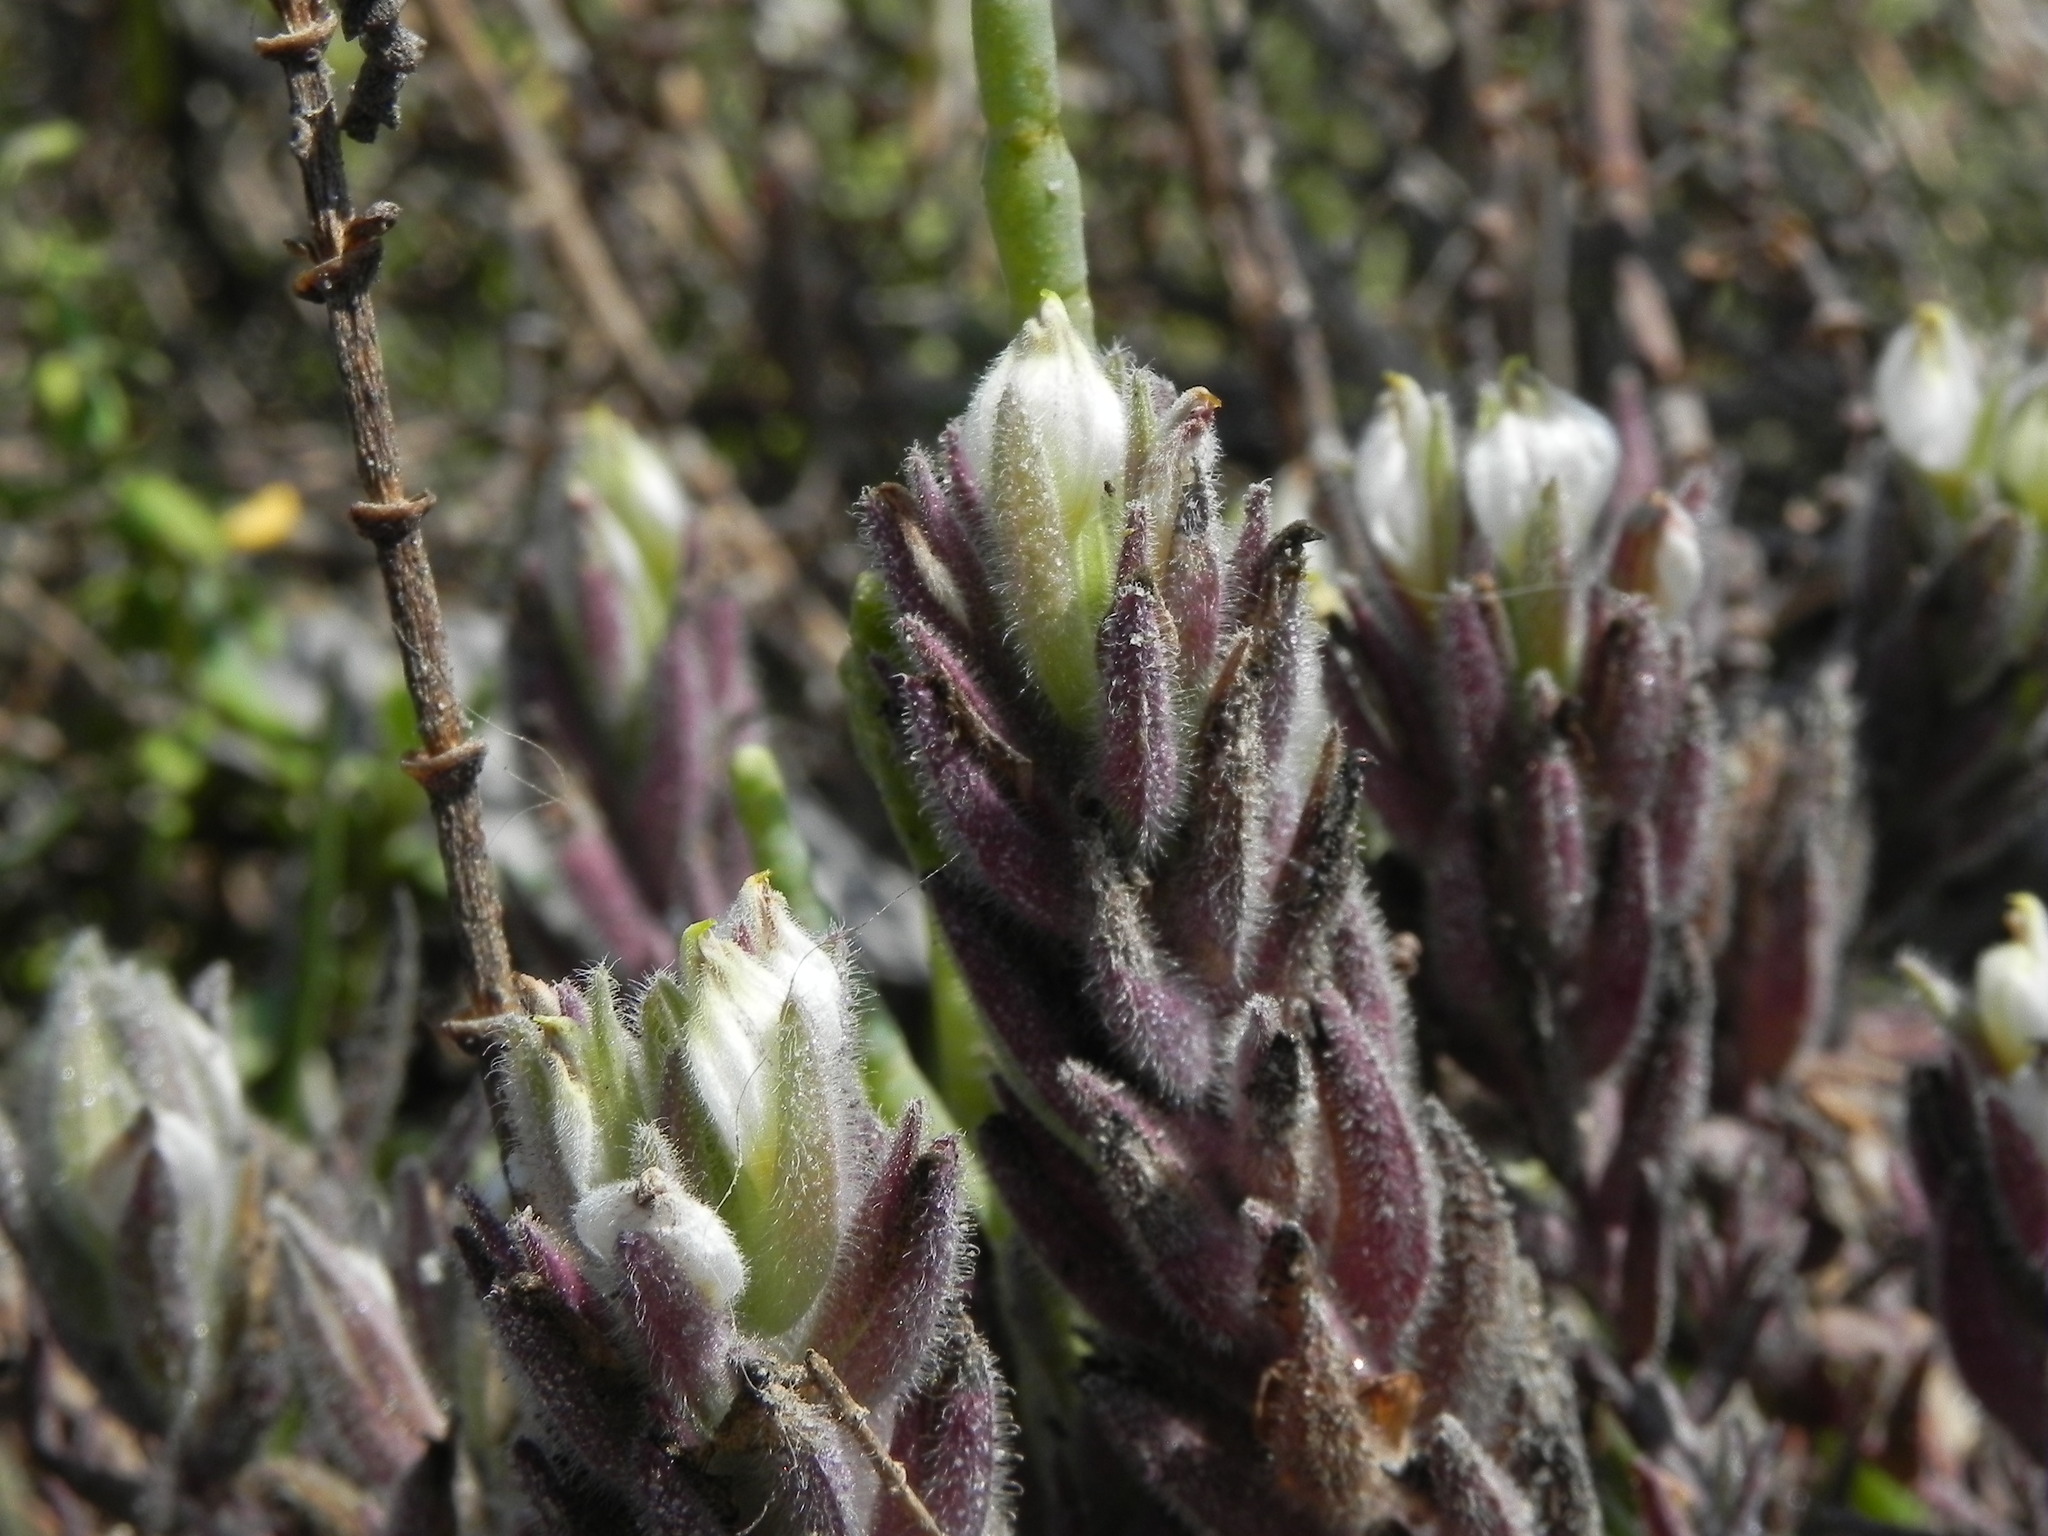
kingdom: Plantae
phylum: Tracheophyta
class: Magnoliopsida
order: Lamiales
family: Orobanchaceae
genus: Chloropyron
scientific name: Chloropyron maritimum
